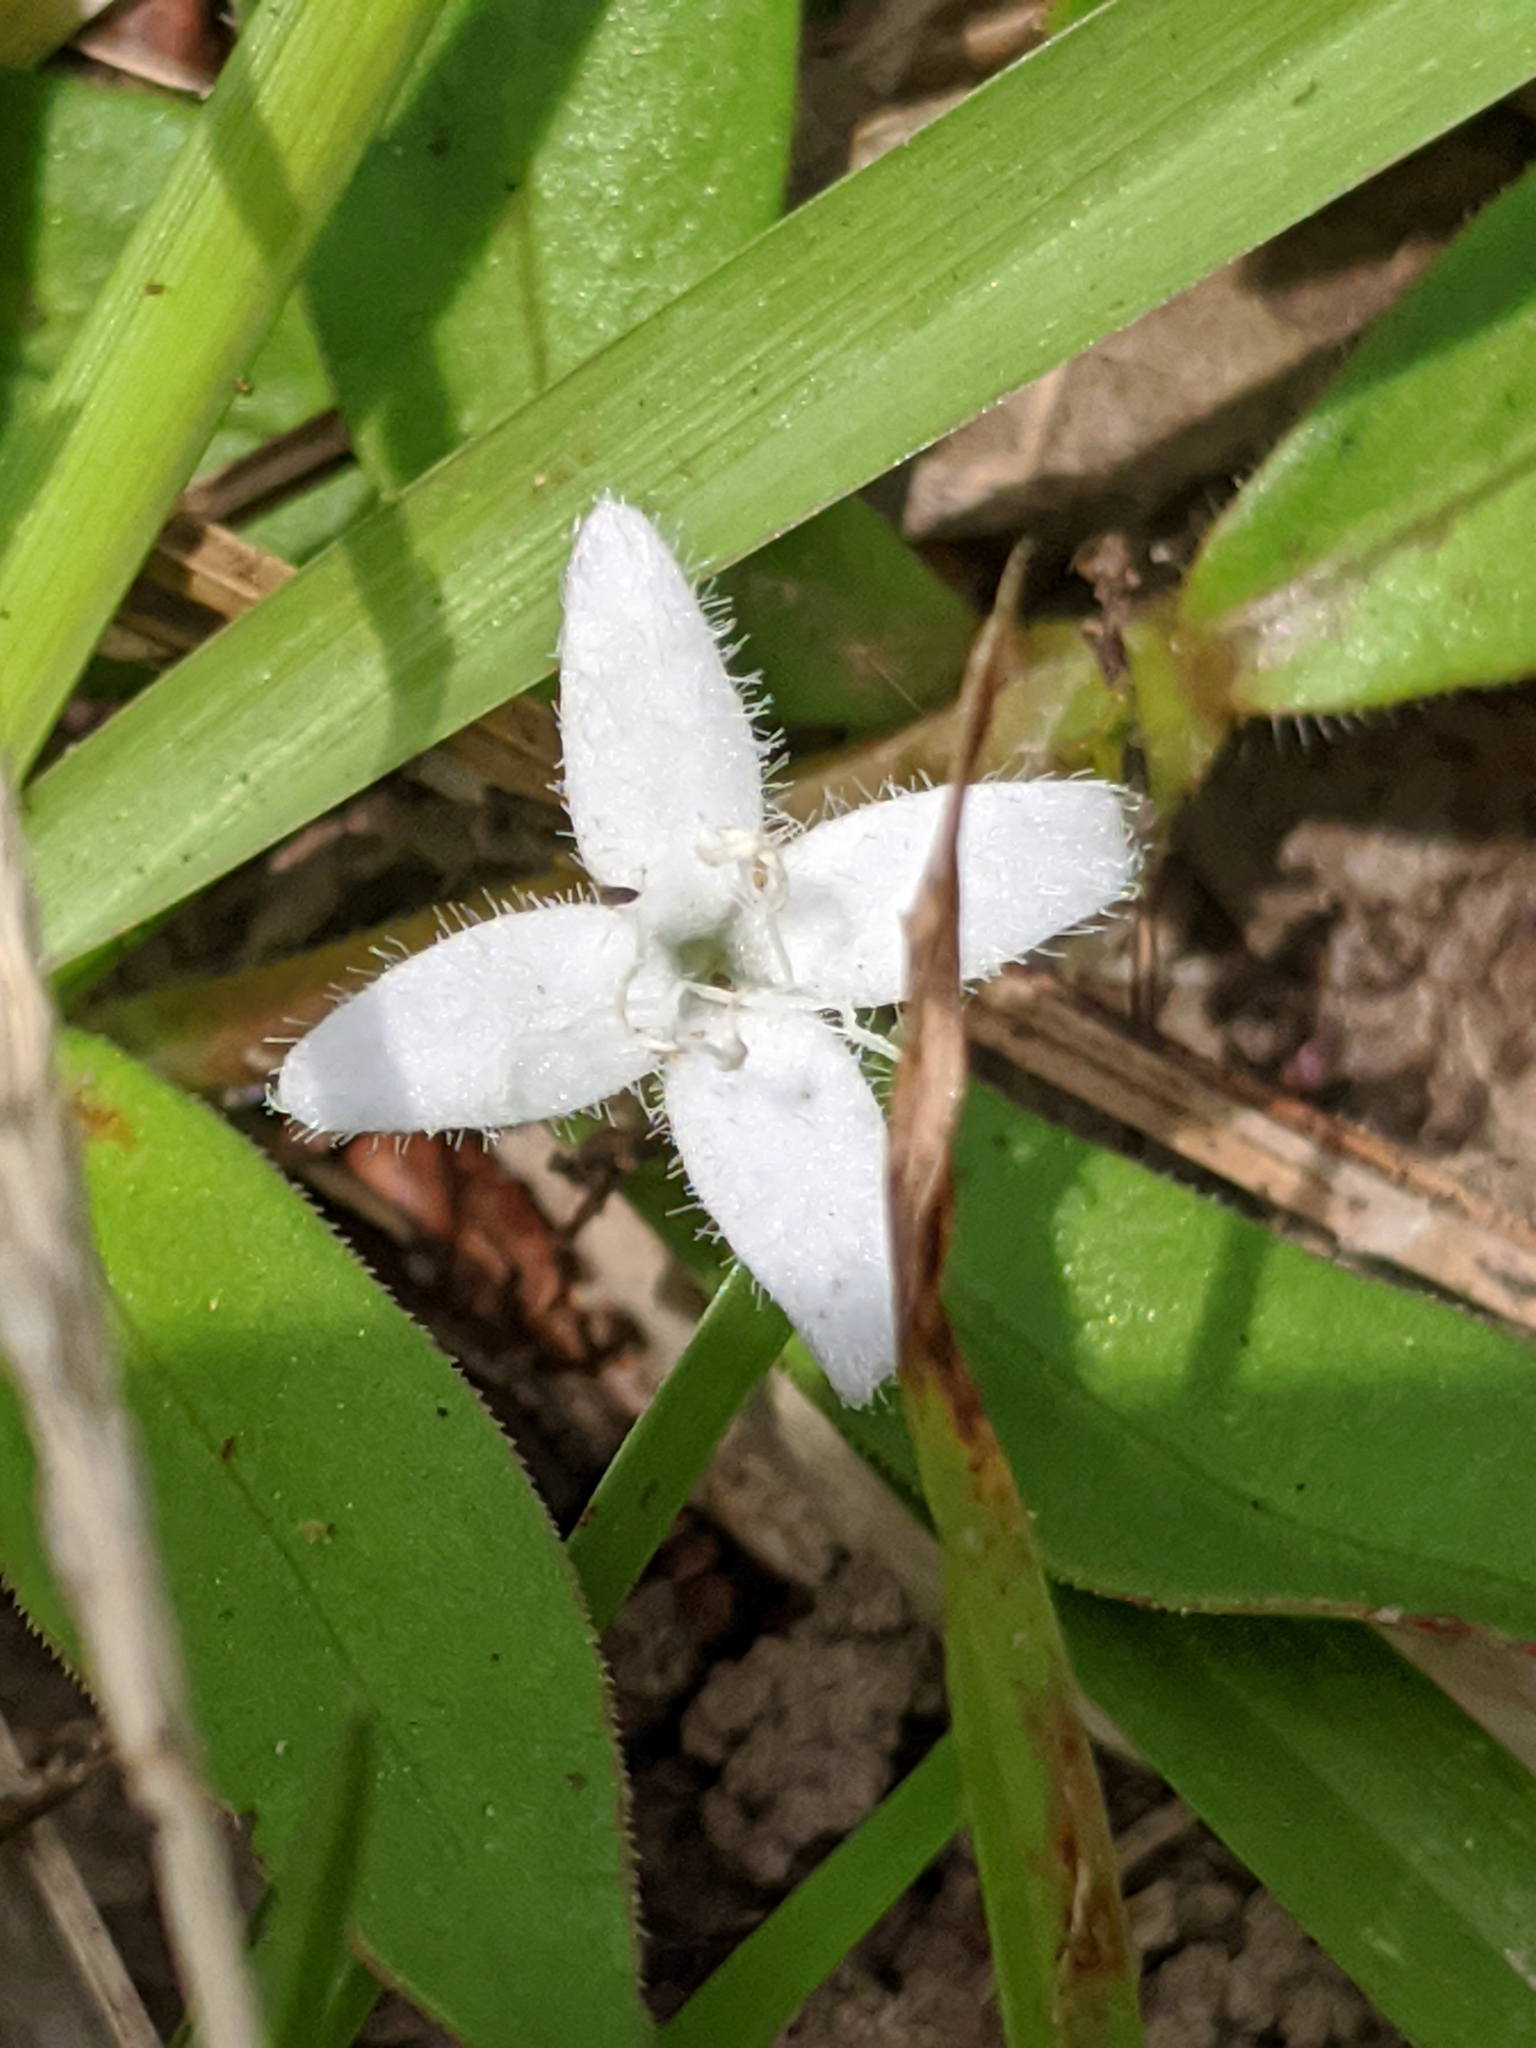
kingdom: Plantae
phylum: Tracheophyta
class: Magnoliopsida
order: Gentianales
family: Rubiaceae
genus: Diodia
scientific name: Diodia virginiana
